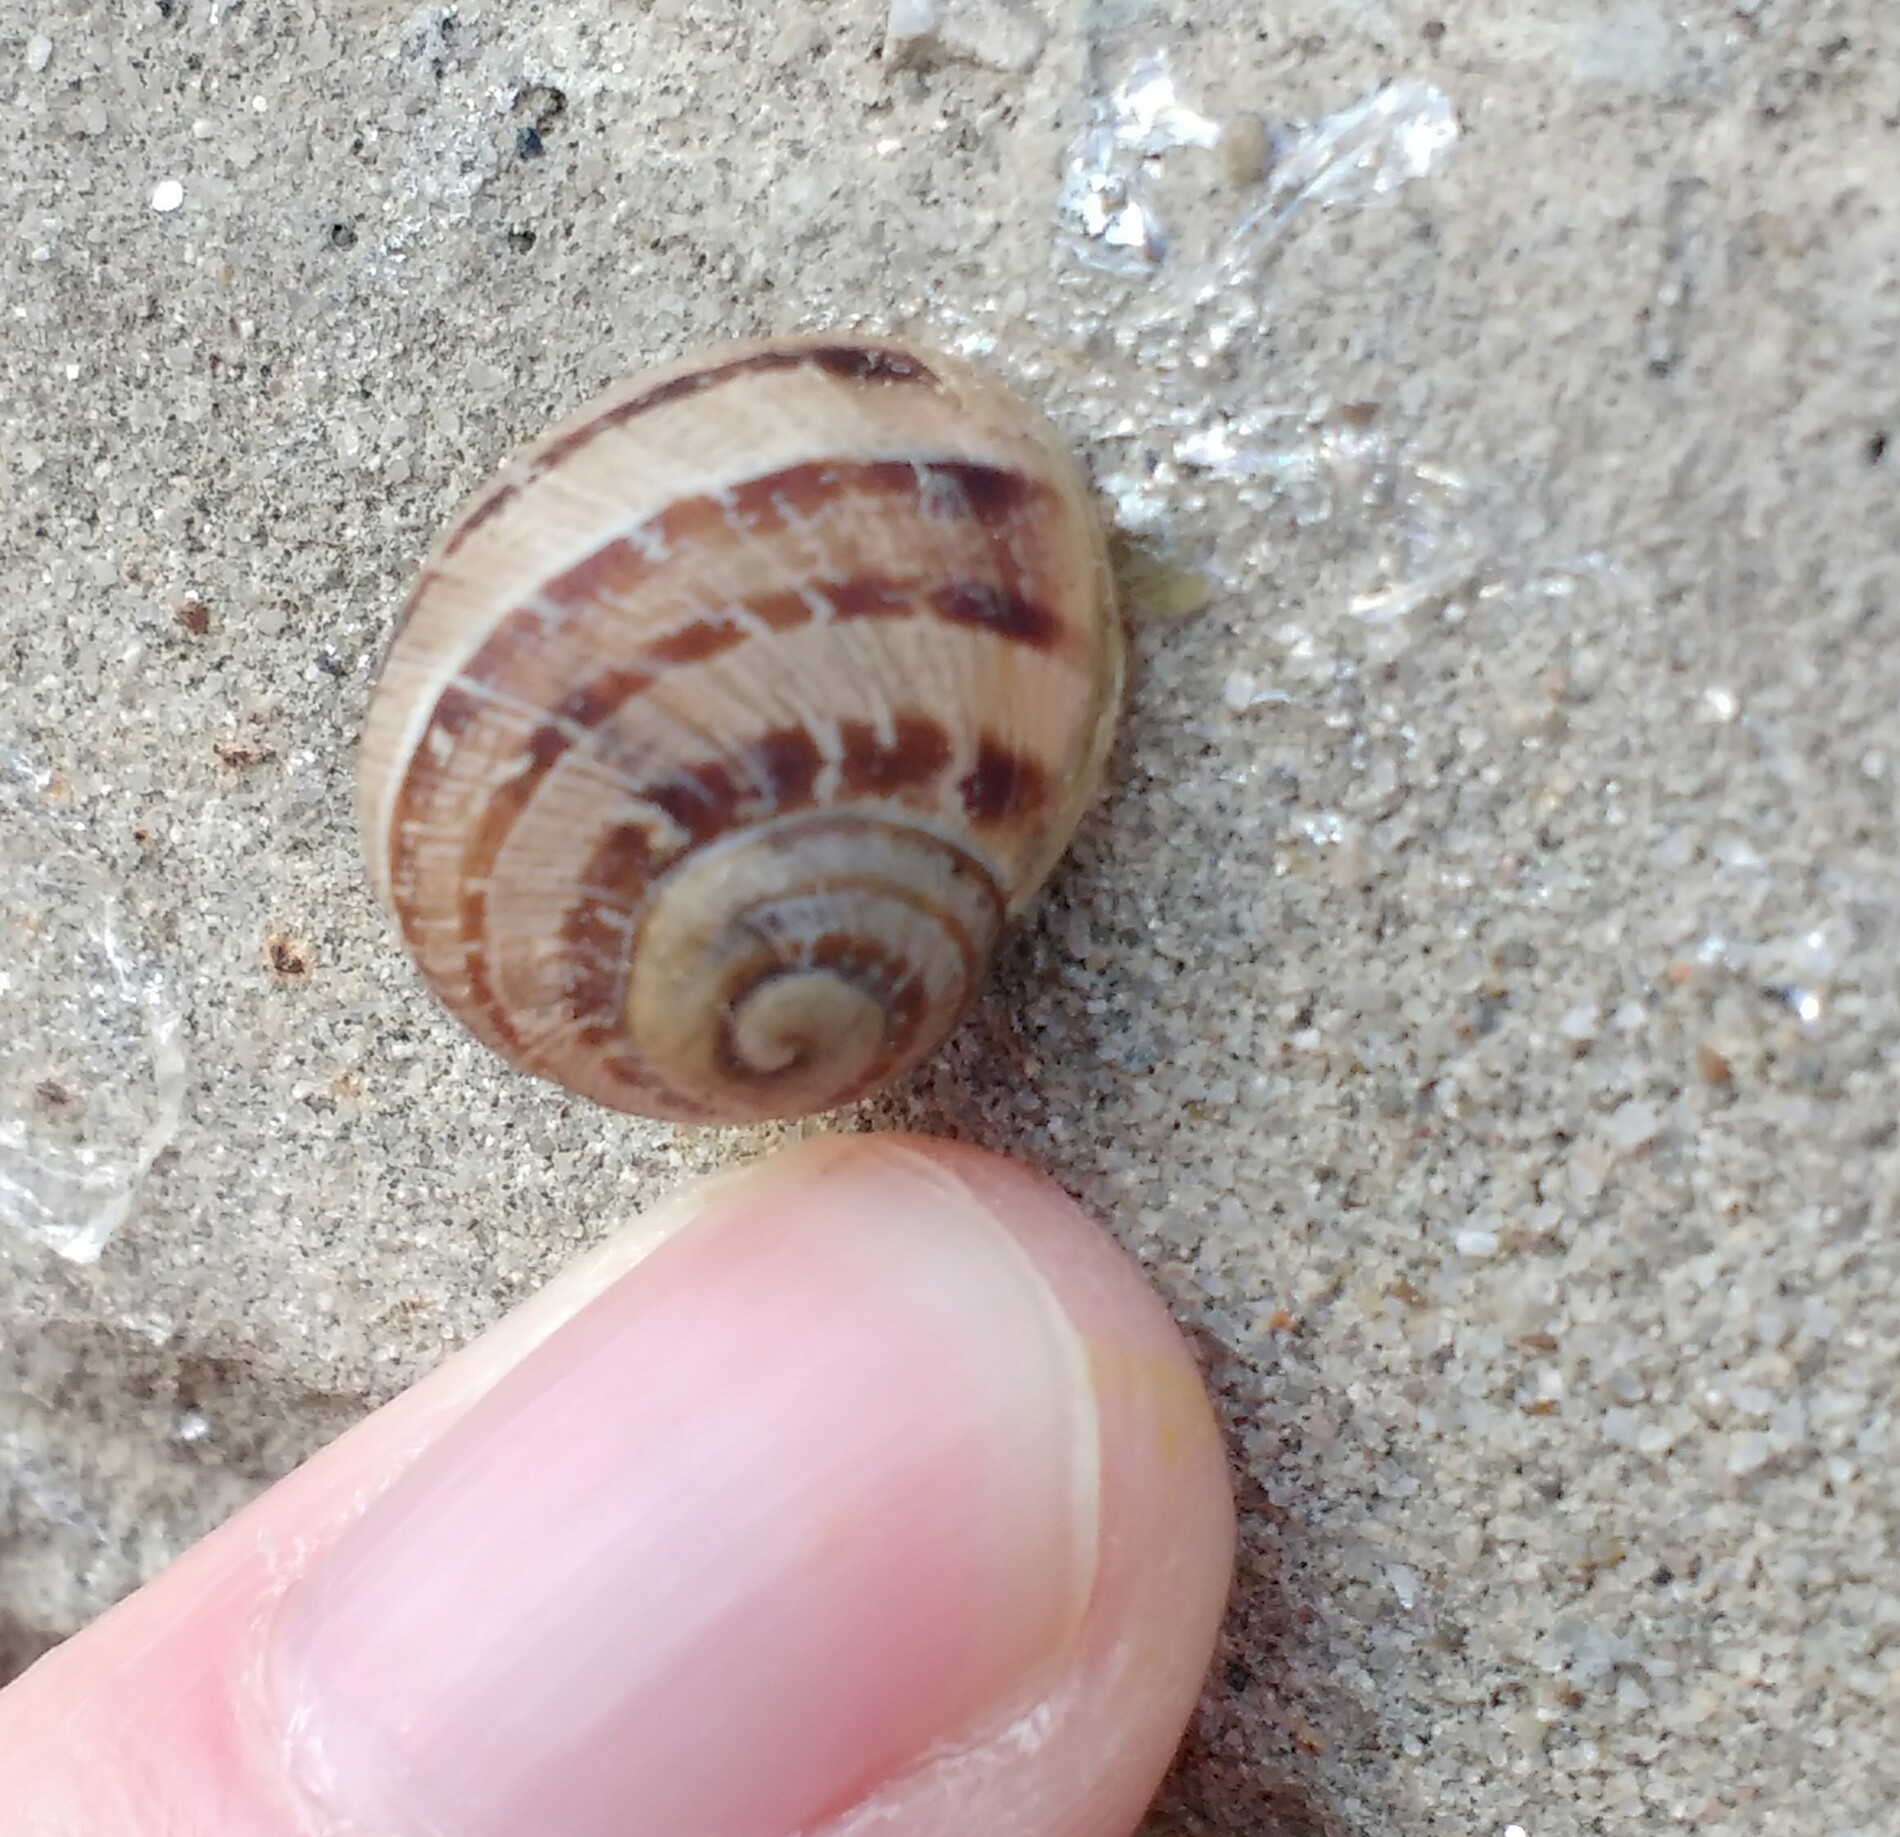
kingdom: Animalia
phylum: Mollusca
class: Gastropoda
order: Stylommatophora
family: Helicidae
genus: Cornu
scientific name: Cornu aspersum
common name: Brown garden snail
